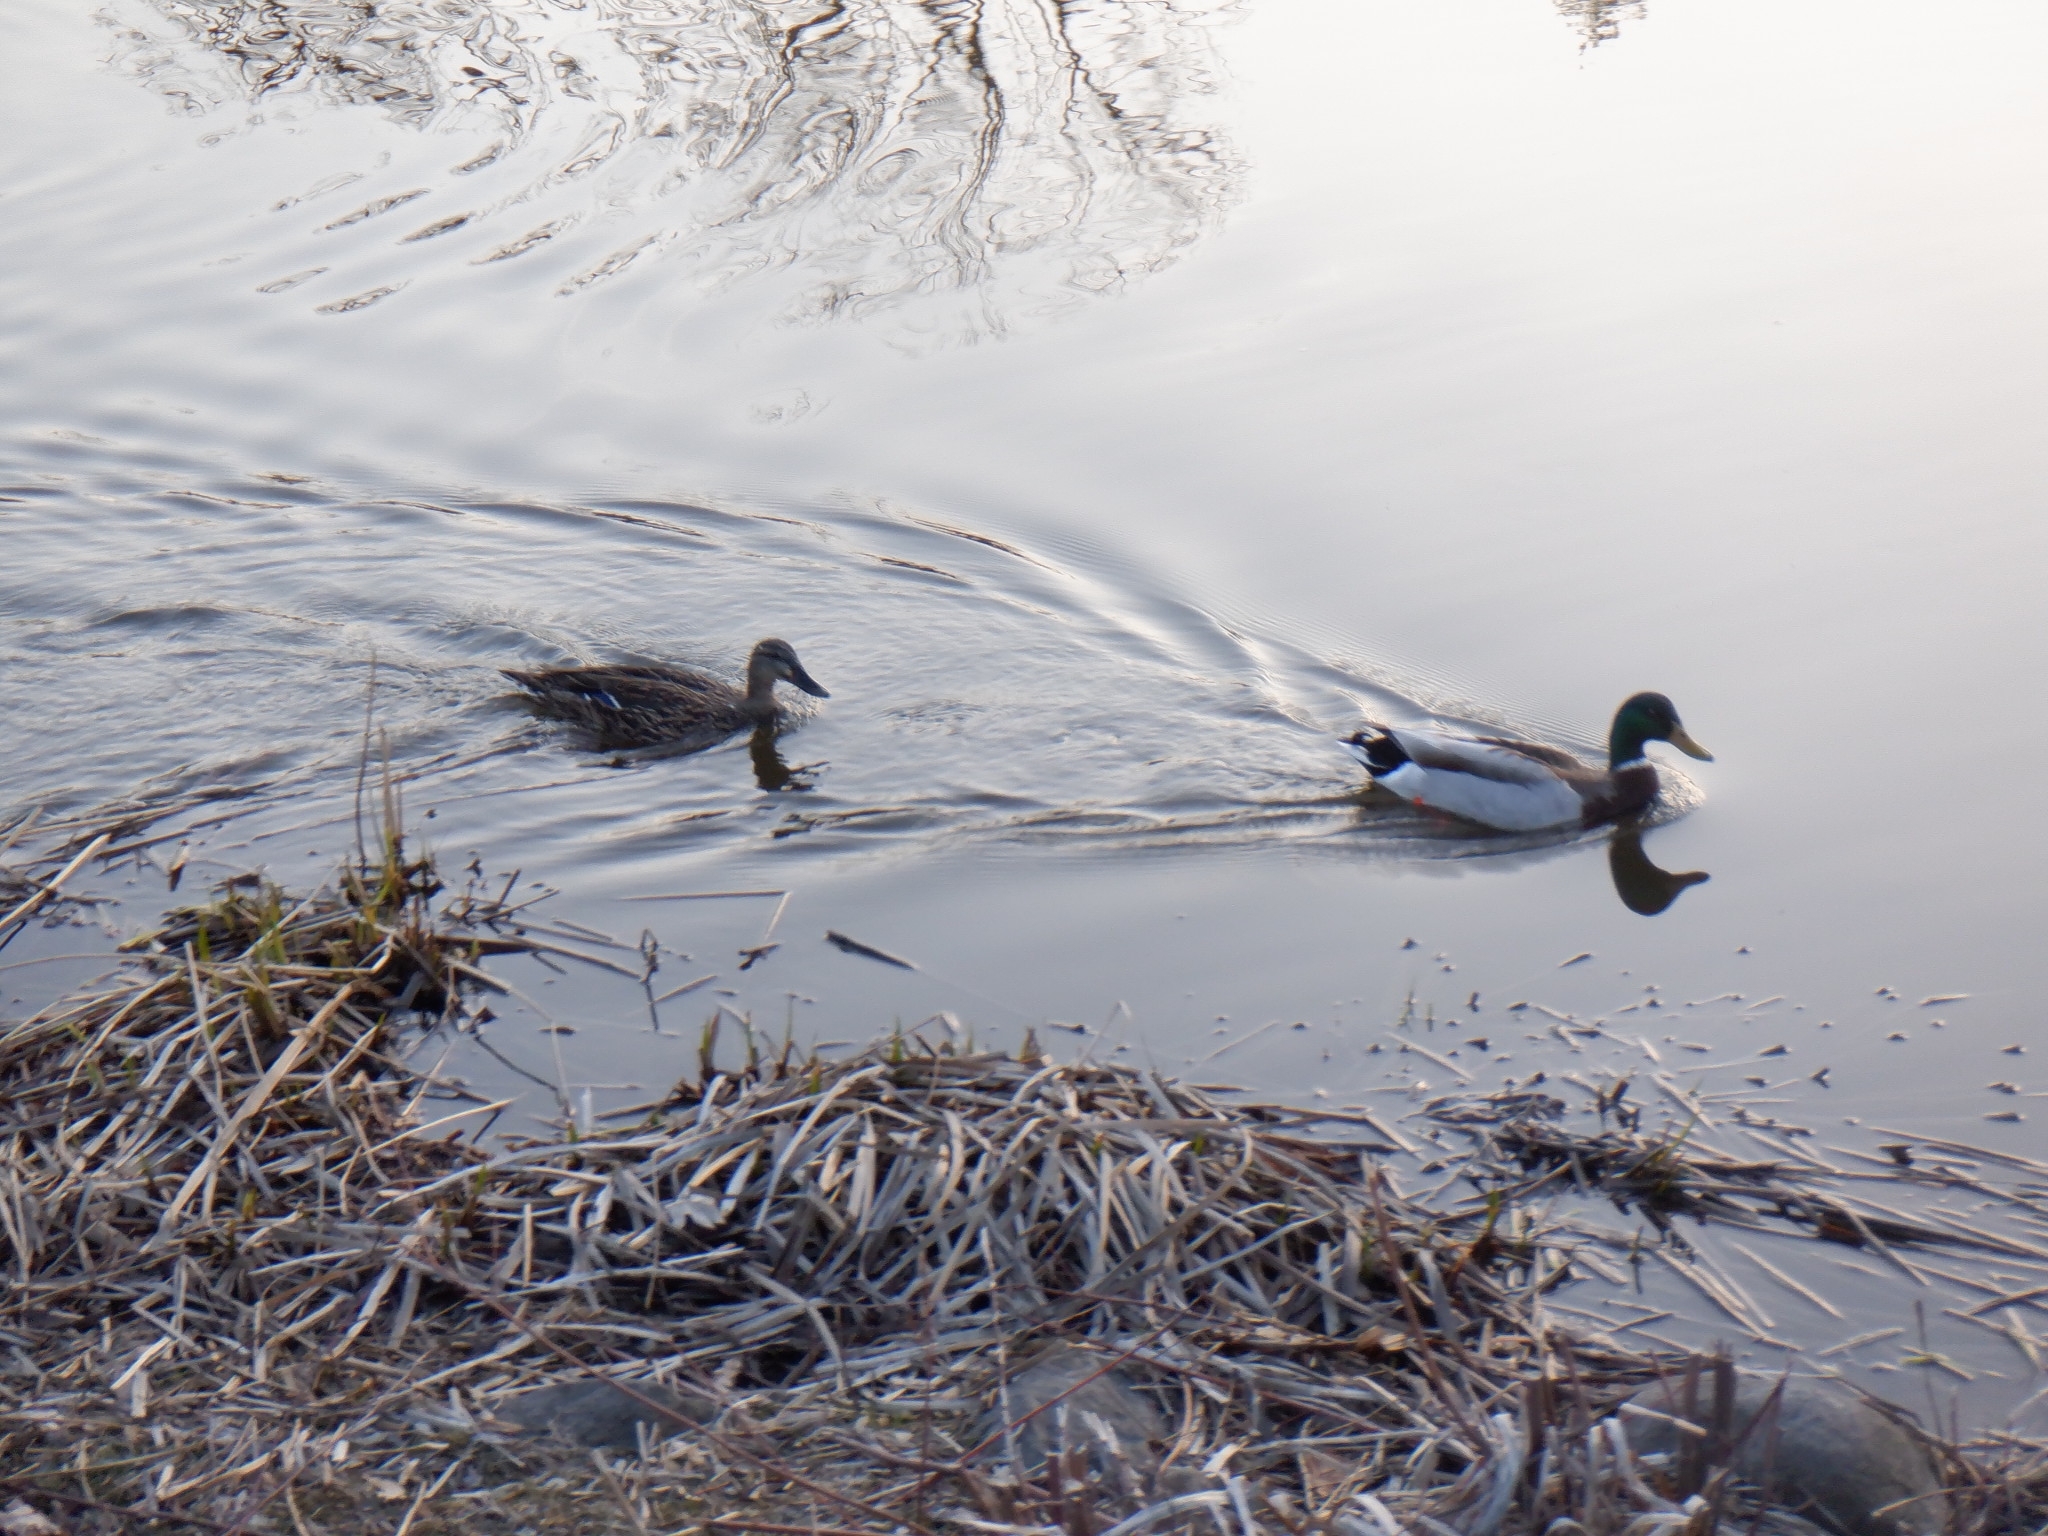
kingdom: Animalia
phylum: Chordata
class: Aves
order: Anseriformes
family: Anatidae
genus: Anas
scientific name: Anas platyrhynchos
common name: Mallard
